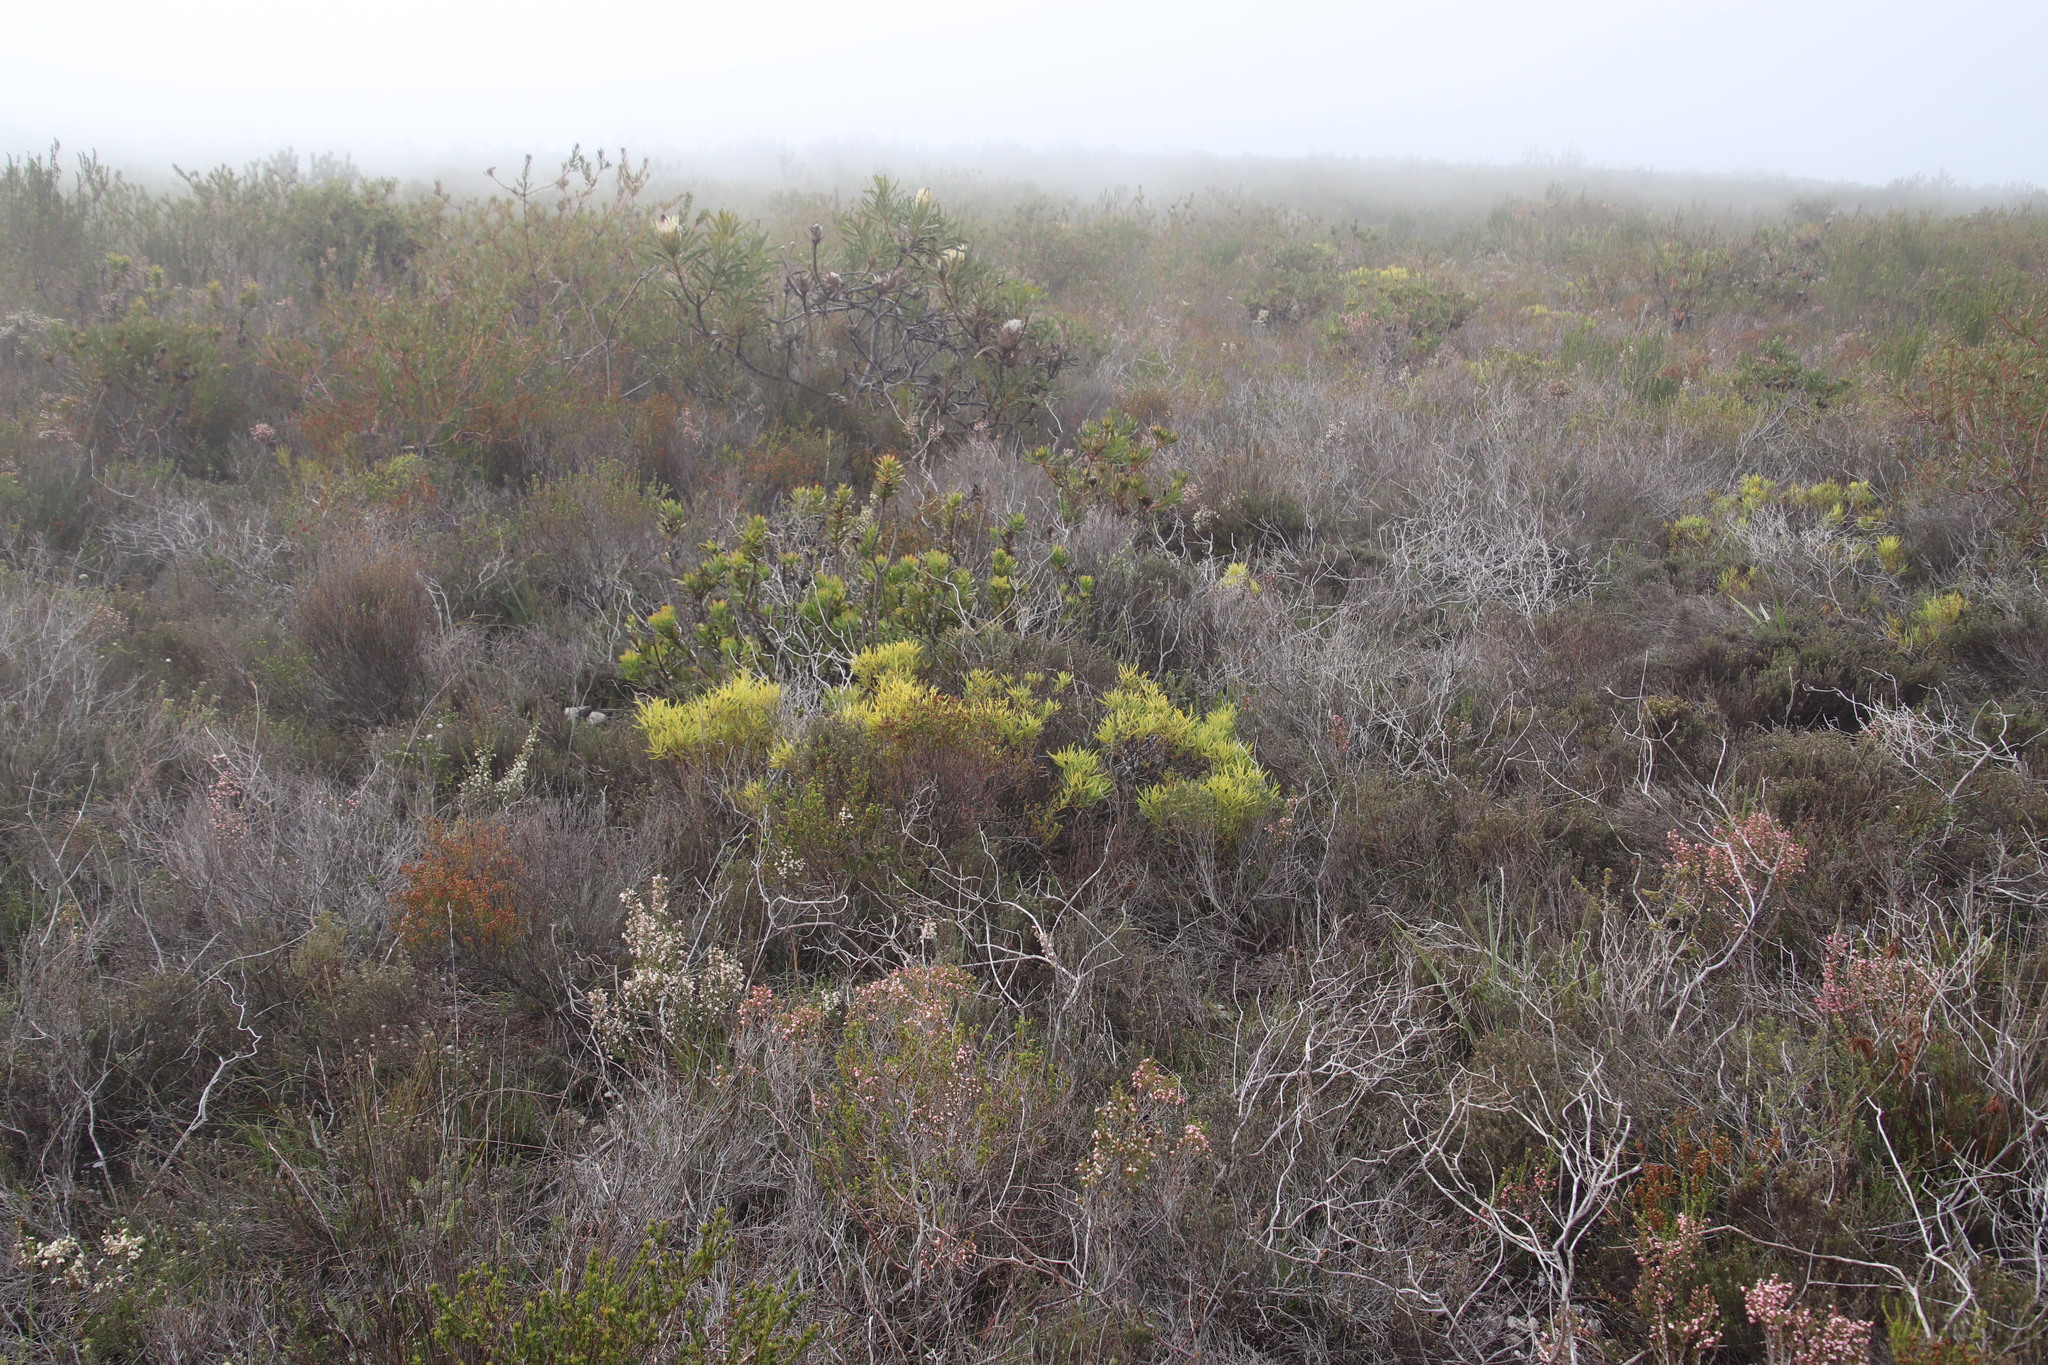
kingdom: Plantae
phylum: Tracheophyta
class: Magnoliopsida
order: Proteales
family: Proteaceae
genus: Leucadendron
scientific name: Leucadendron salignum
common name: Common sunshine conebush
